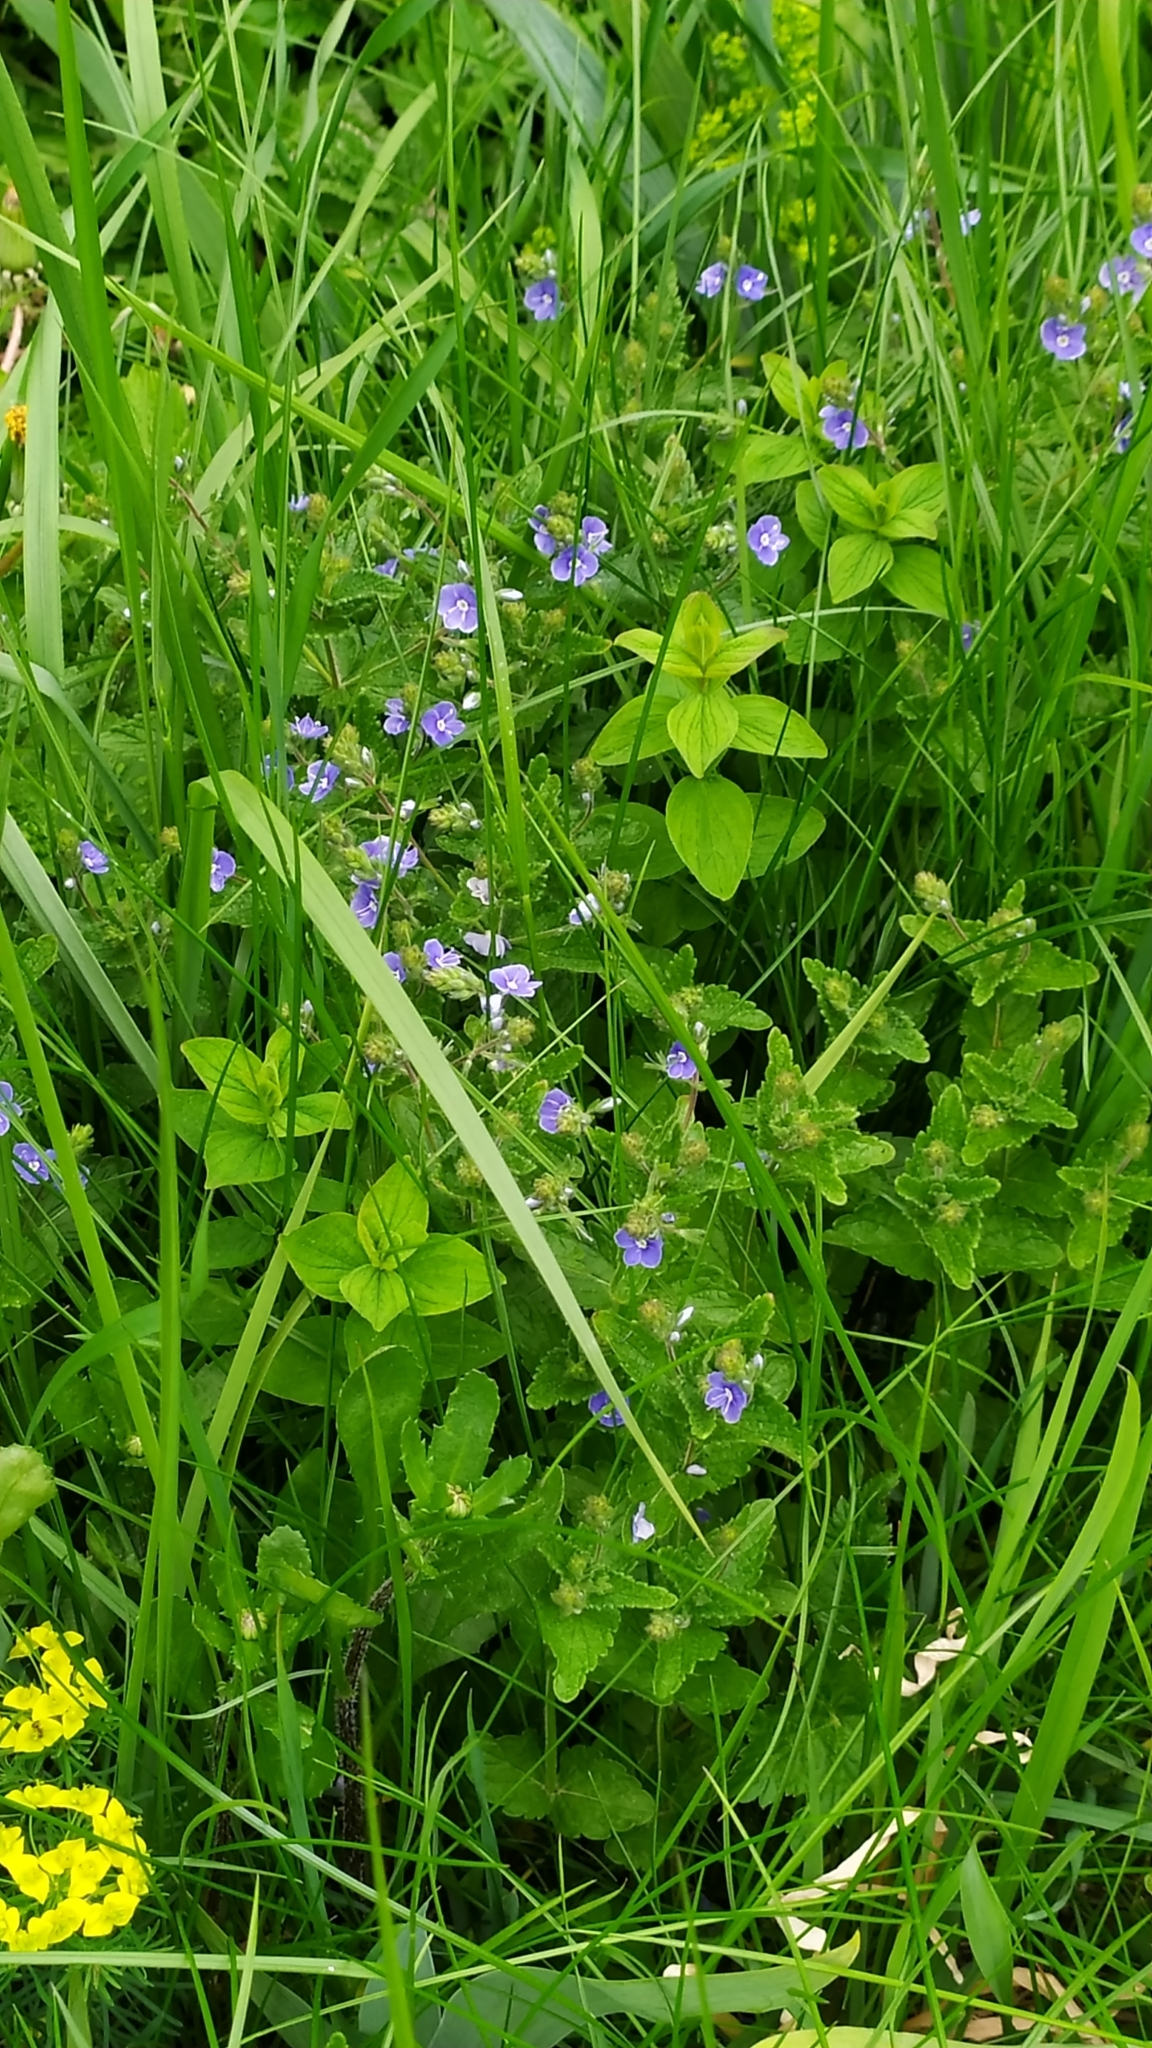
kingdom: Plantae
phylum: Tracheophyta
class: Magnoliopsida
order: Lamiales
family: Plantaginaceae
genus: Veronica
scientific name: Veronica chamaedrys
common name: Germander speedwell
